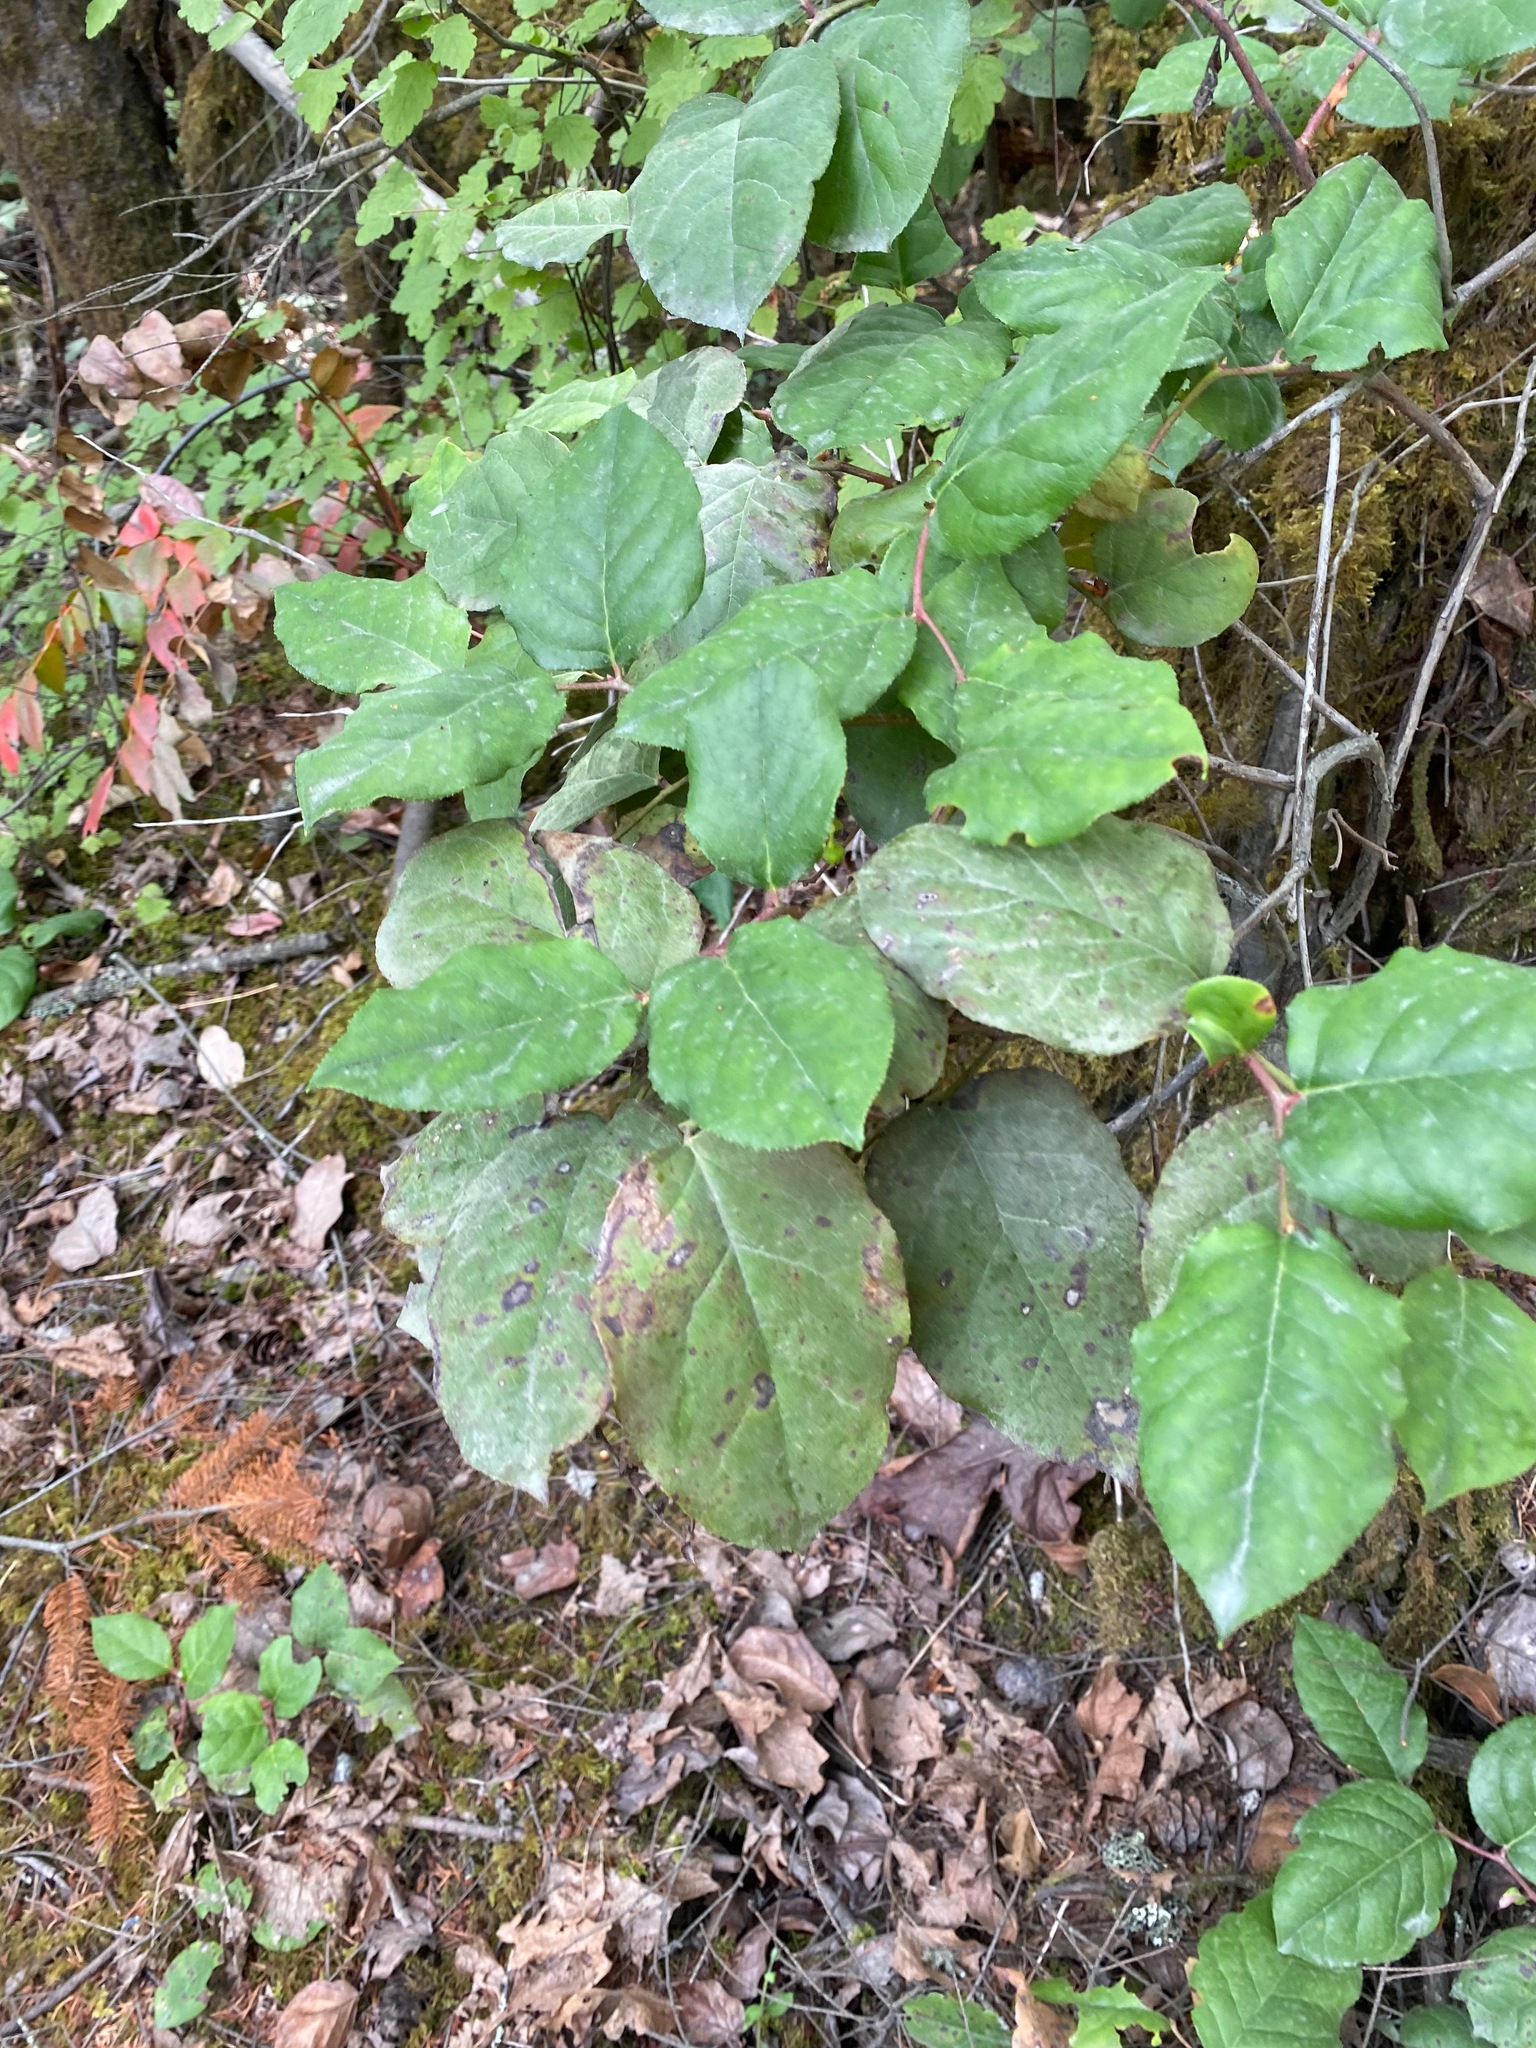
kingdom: Plantae
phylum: Tracheophyta
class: Magnoliopsida
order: Ericales
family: Ericaceae
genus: Gaultheria
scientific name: Gaultheria shallon
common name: Shallon
